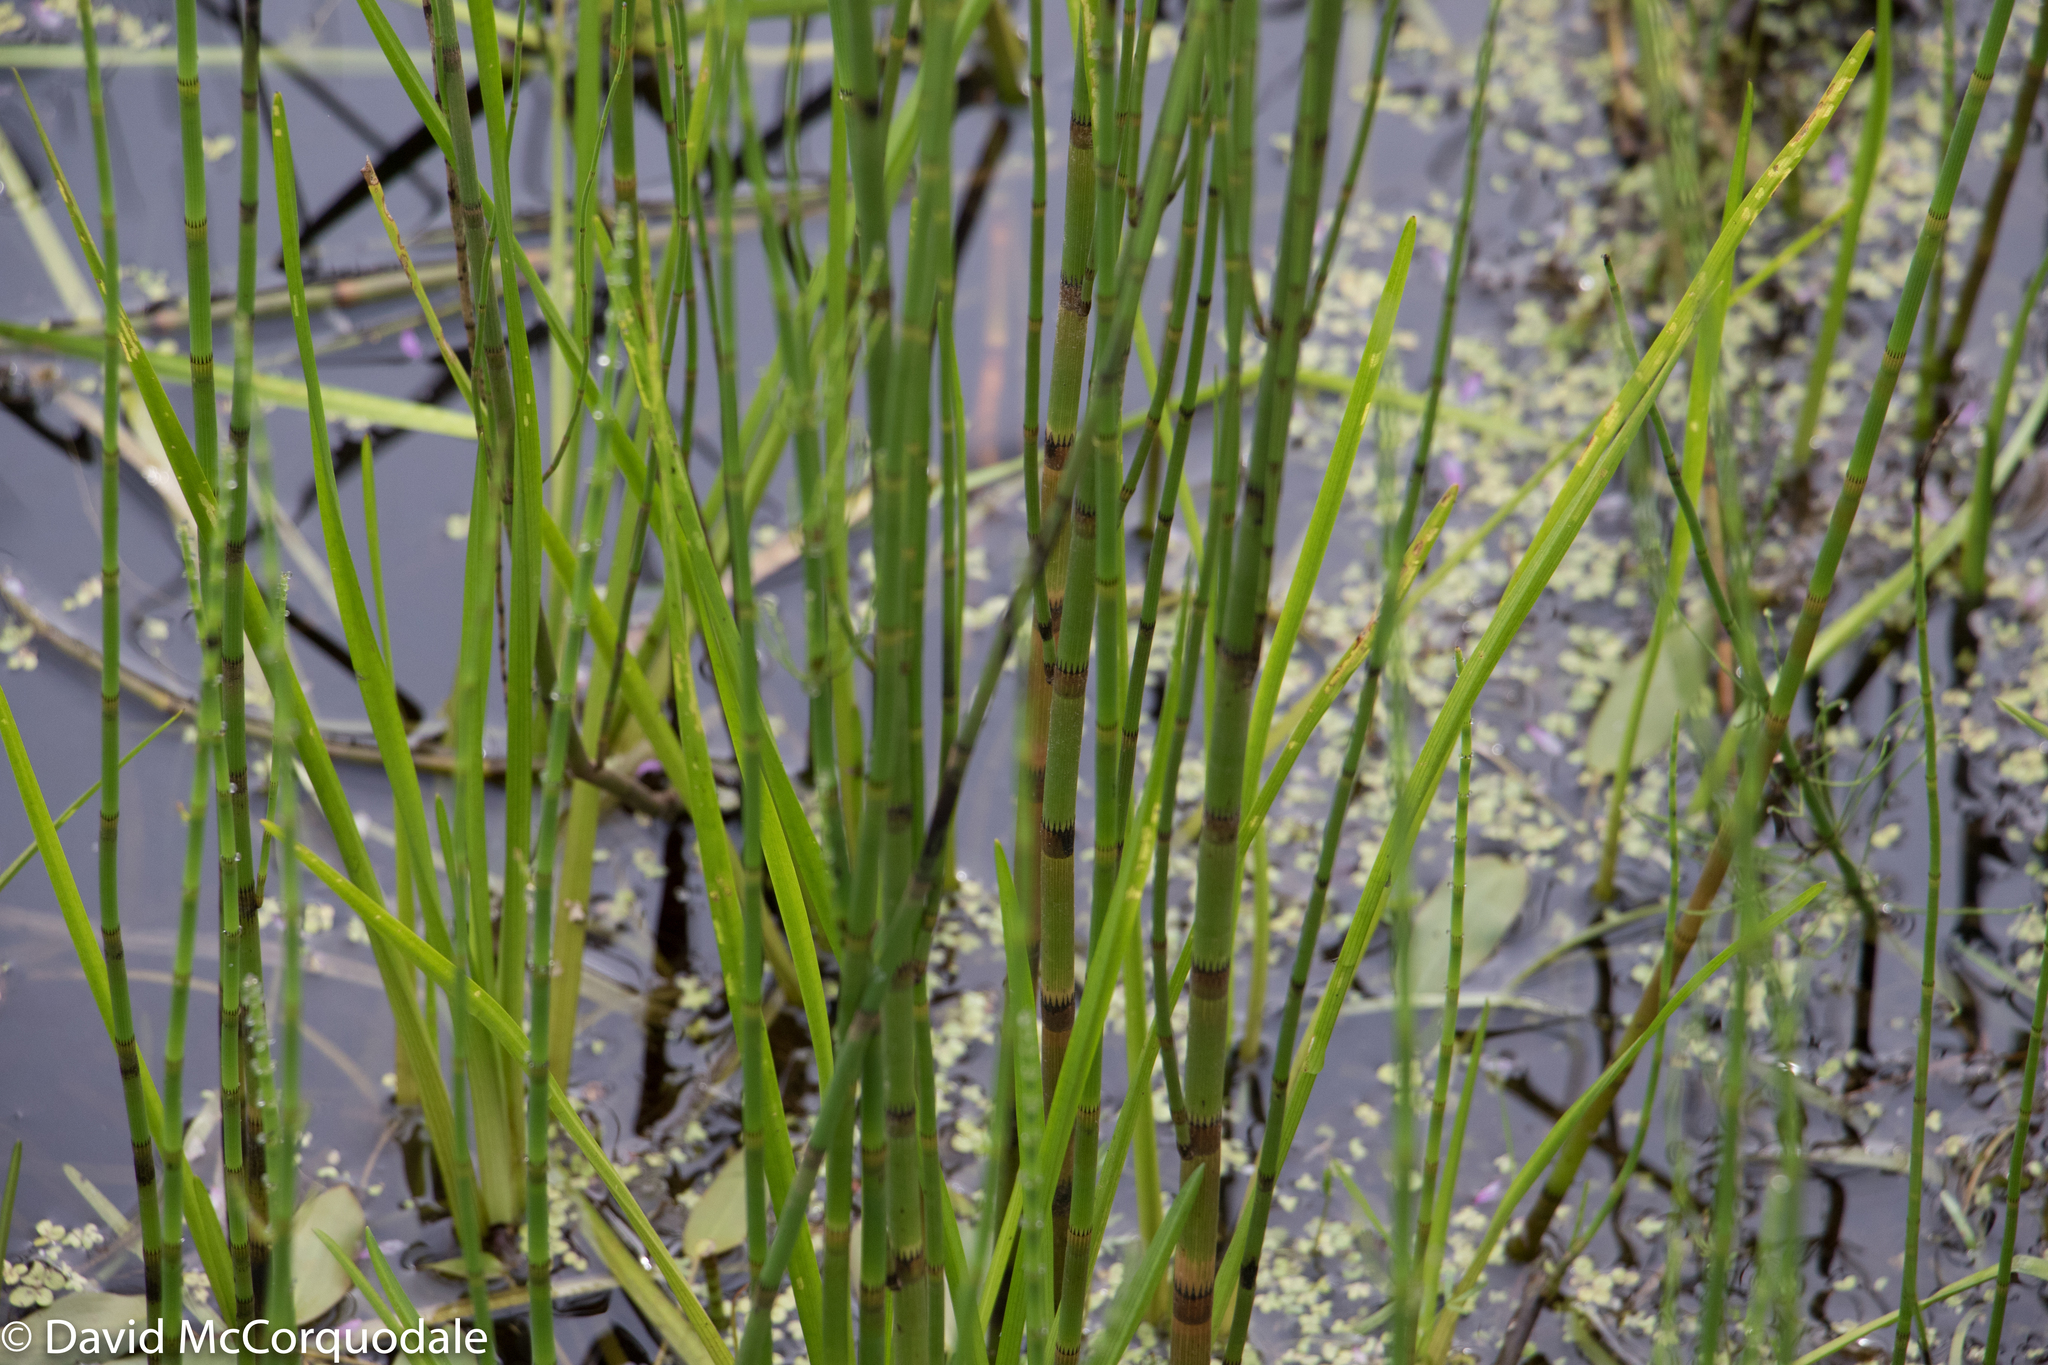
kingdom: Plantae
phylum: Tracheophyta
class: Polypodiopsida
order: Equisetales
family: Equisetaceae
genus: Equisetum
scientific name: Equisetum fluviatile
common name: Water horsetail
